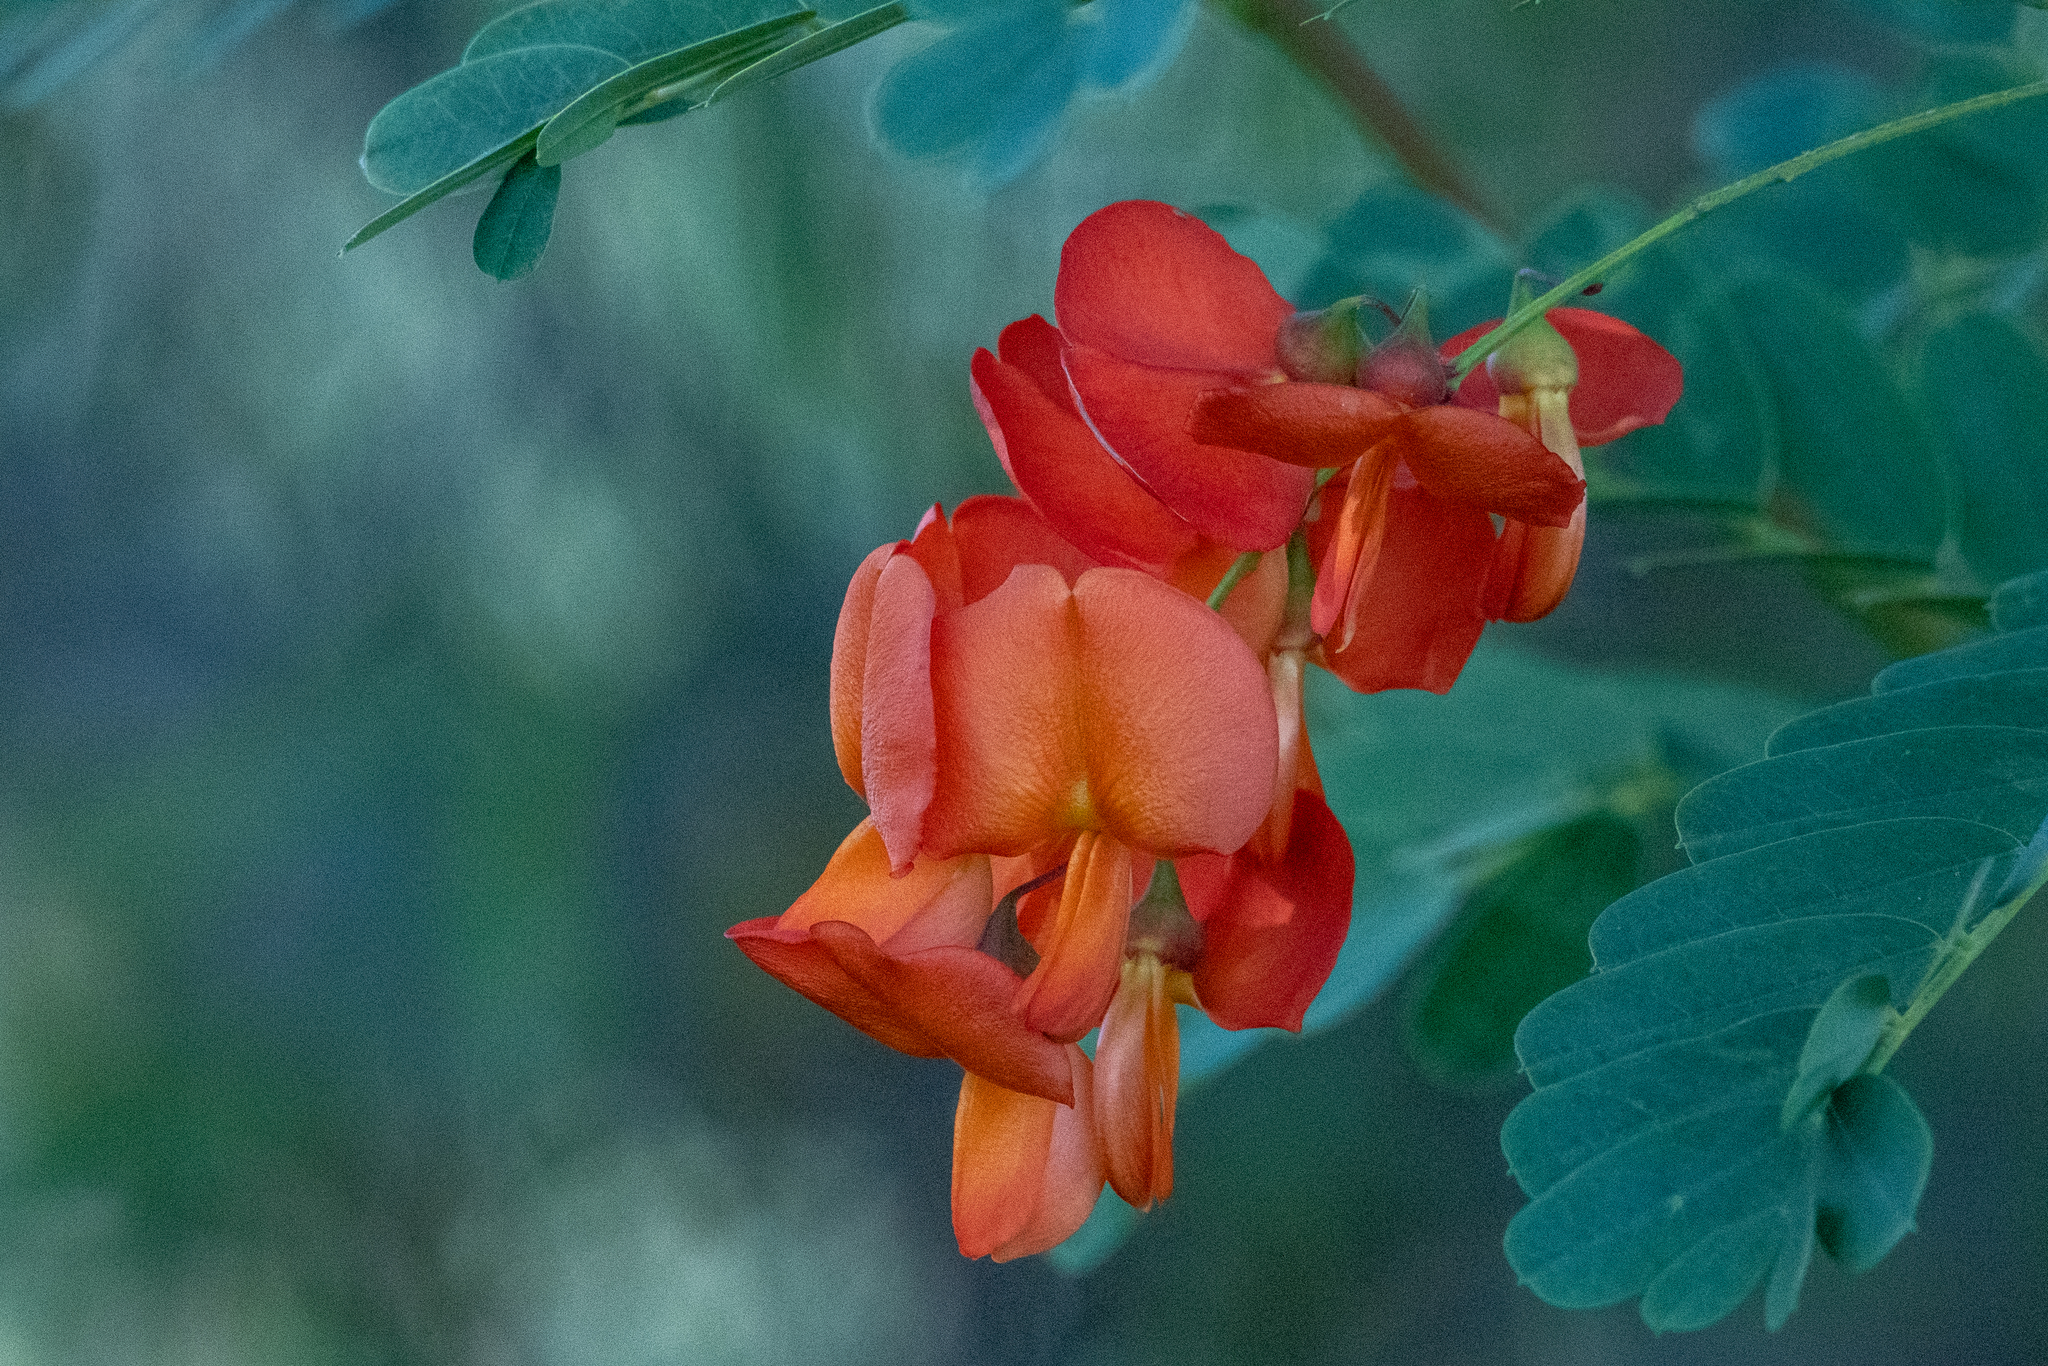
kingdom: Plantae
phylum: Tracheophyta
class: Magnoliopsida
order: Fabales
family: Fabaceae
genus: Sesbania
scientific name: Sesbania punicea
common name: Rattlebox
